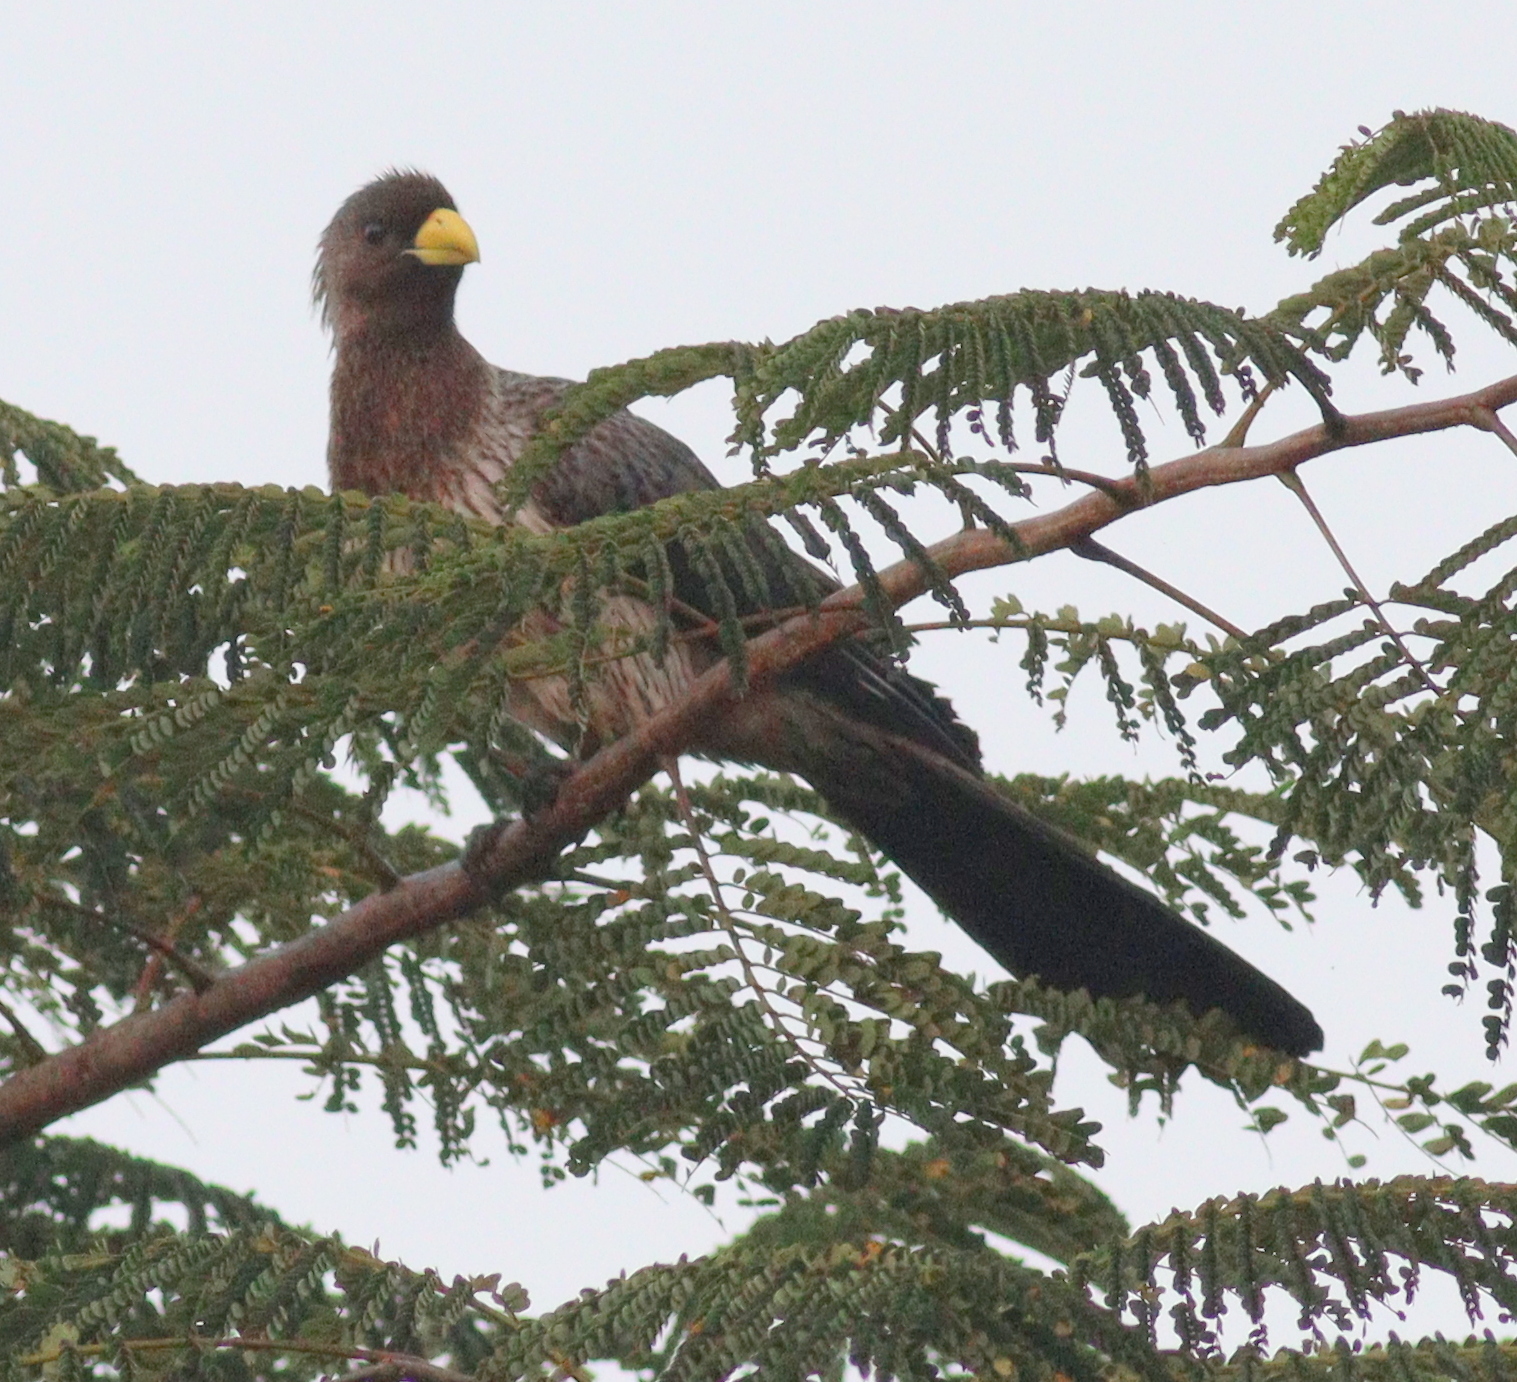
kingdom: Animalia
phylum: Chordata
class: Aves
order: Musophagiformes
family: Musophagidae
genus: Crinifer
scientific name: Crinifer piscator
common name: Western plantain-eater
